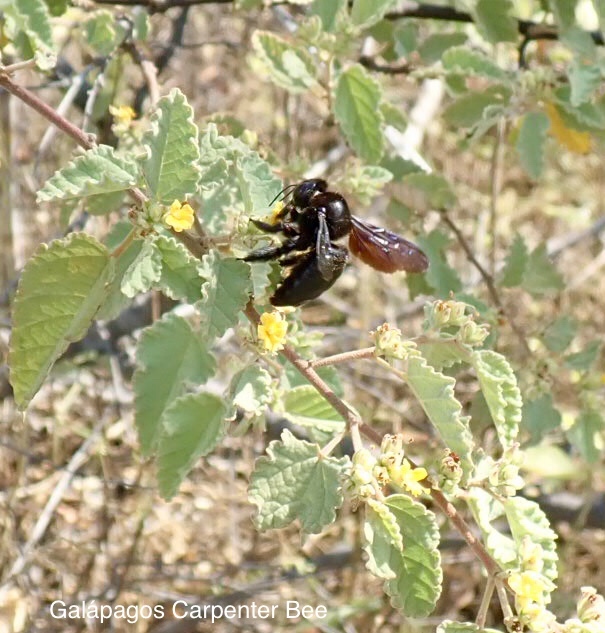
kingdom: Animalia
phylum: Arthropoda
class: Insecta
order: Hymenoptera
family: Apidae
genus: Xylocopa
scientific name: Xylocopa darwini
